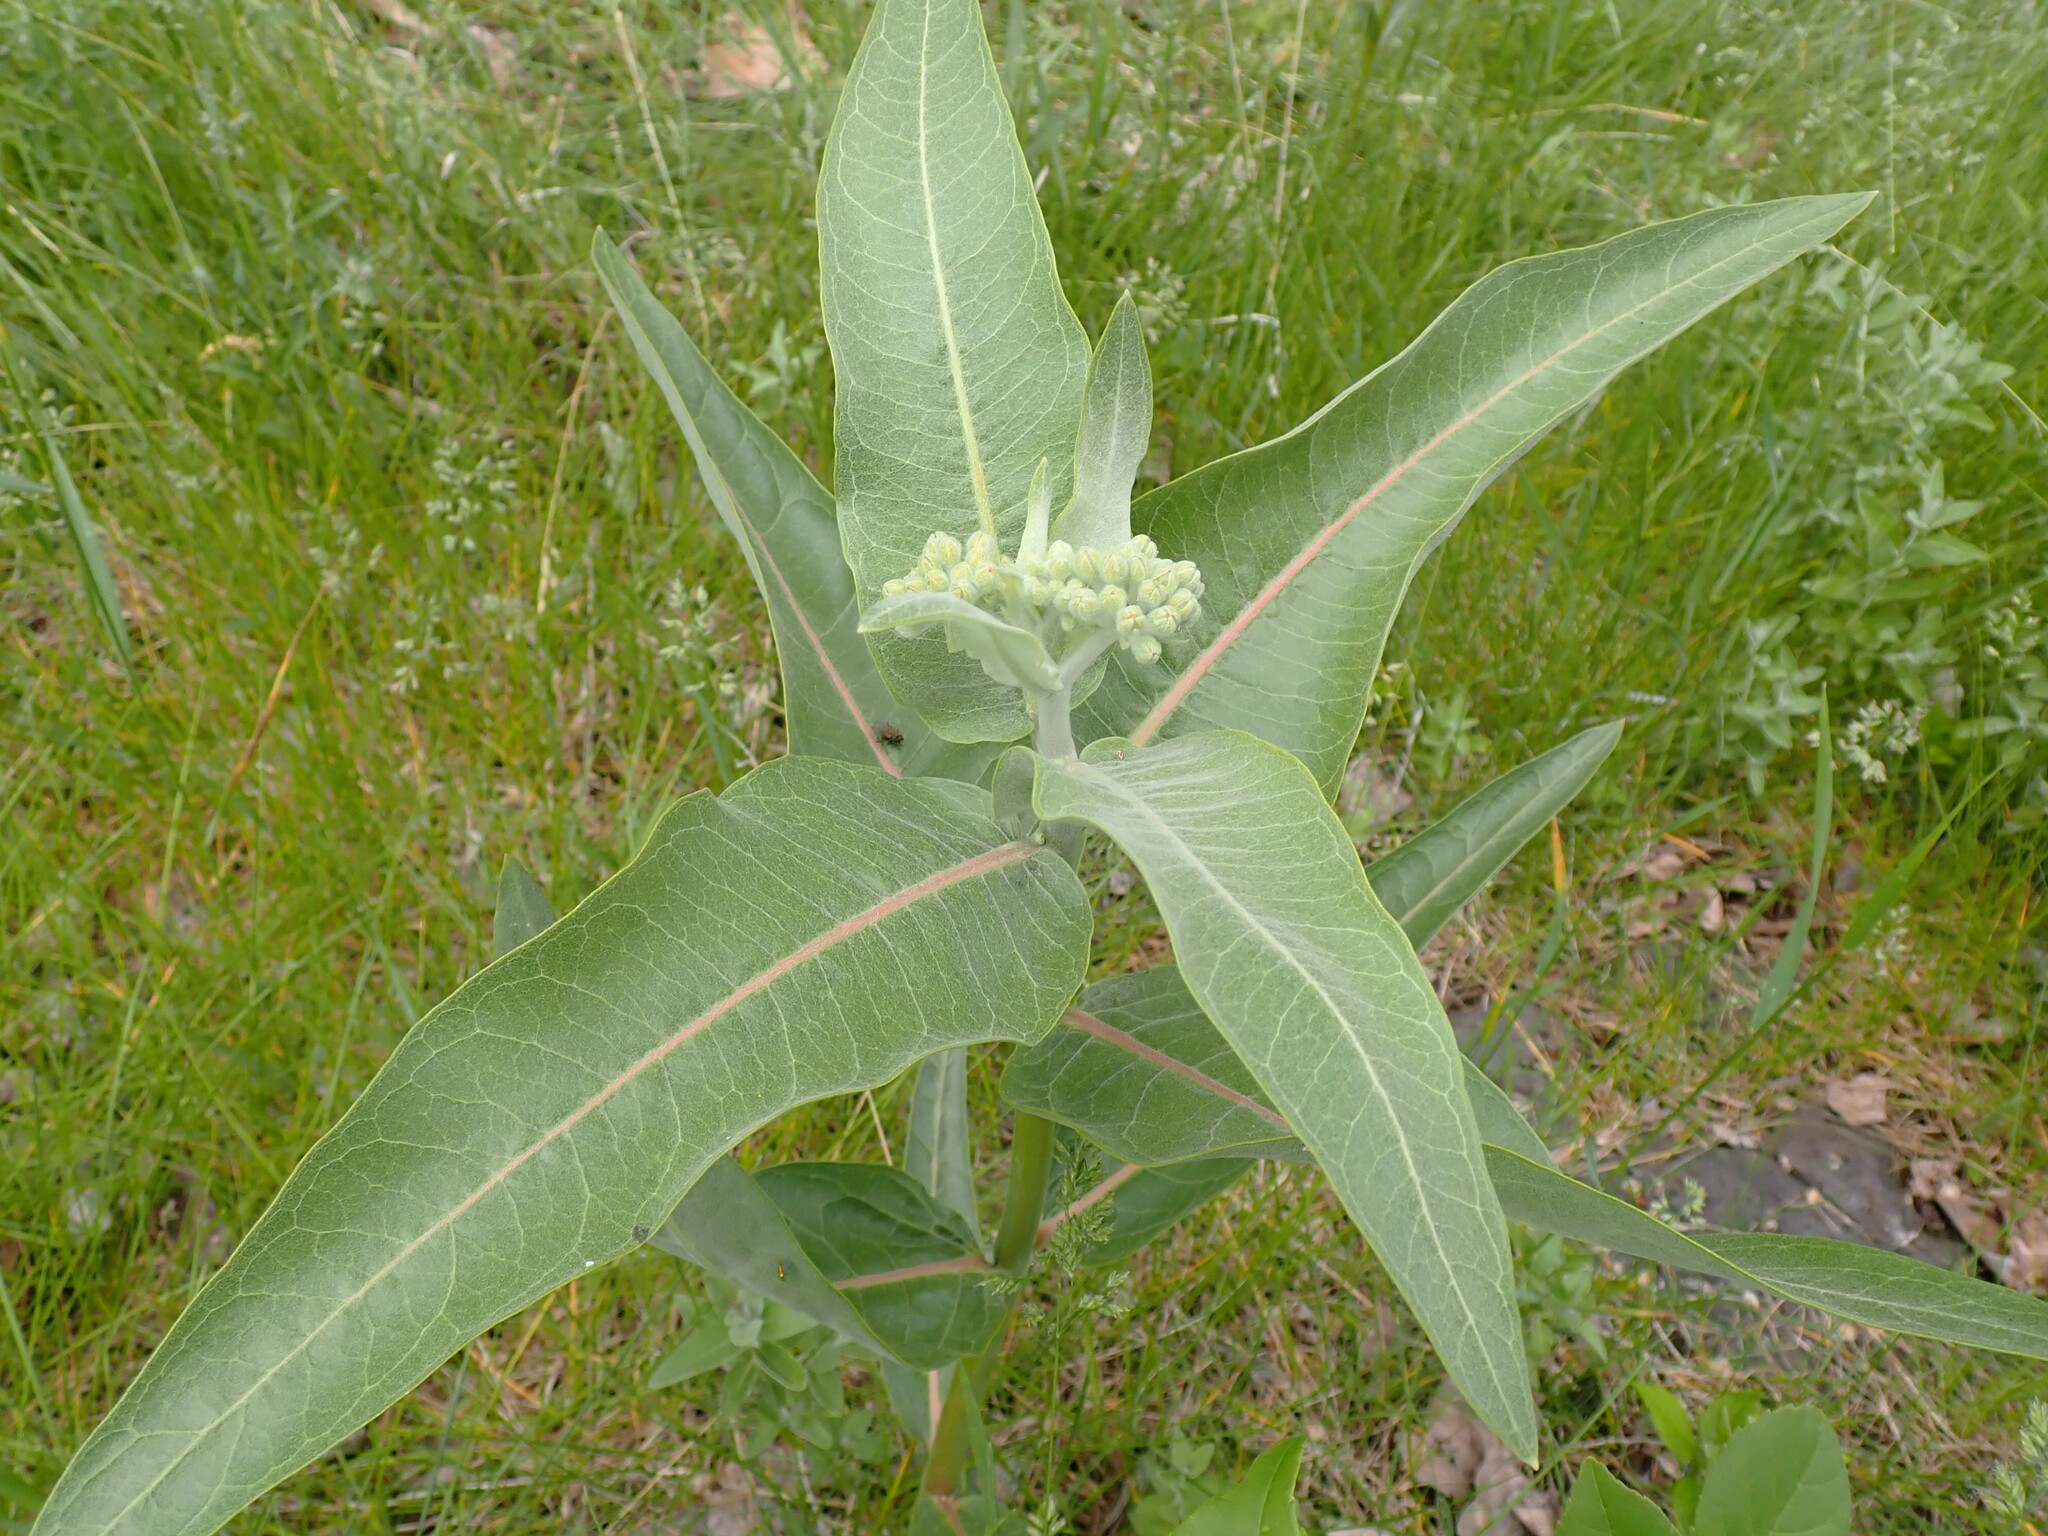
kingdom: Plantae
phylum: Tracheophyta
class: Magnoliopsida
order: Gentianales
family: Apocynaceae
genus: Asclepias
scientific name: Asclepias speciosa
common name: Showy milkweed
